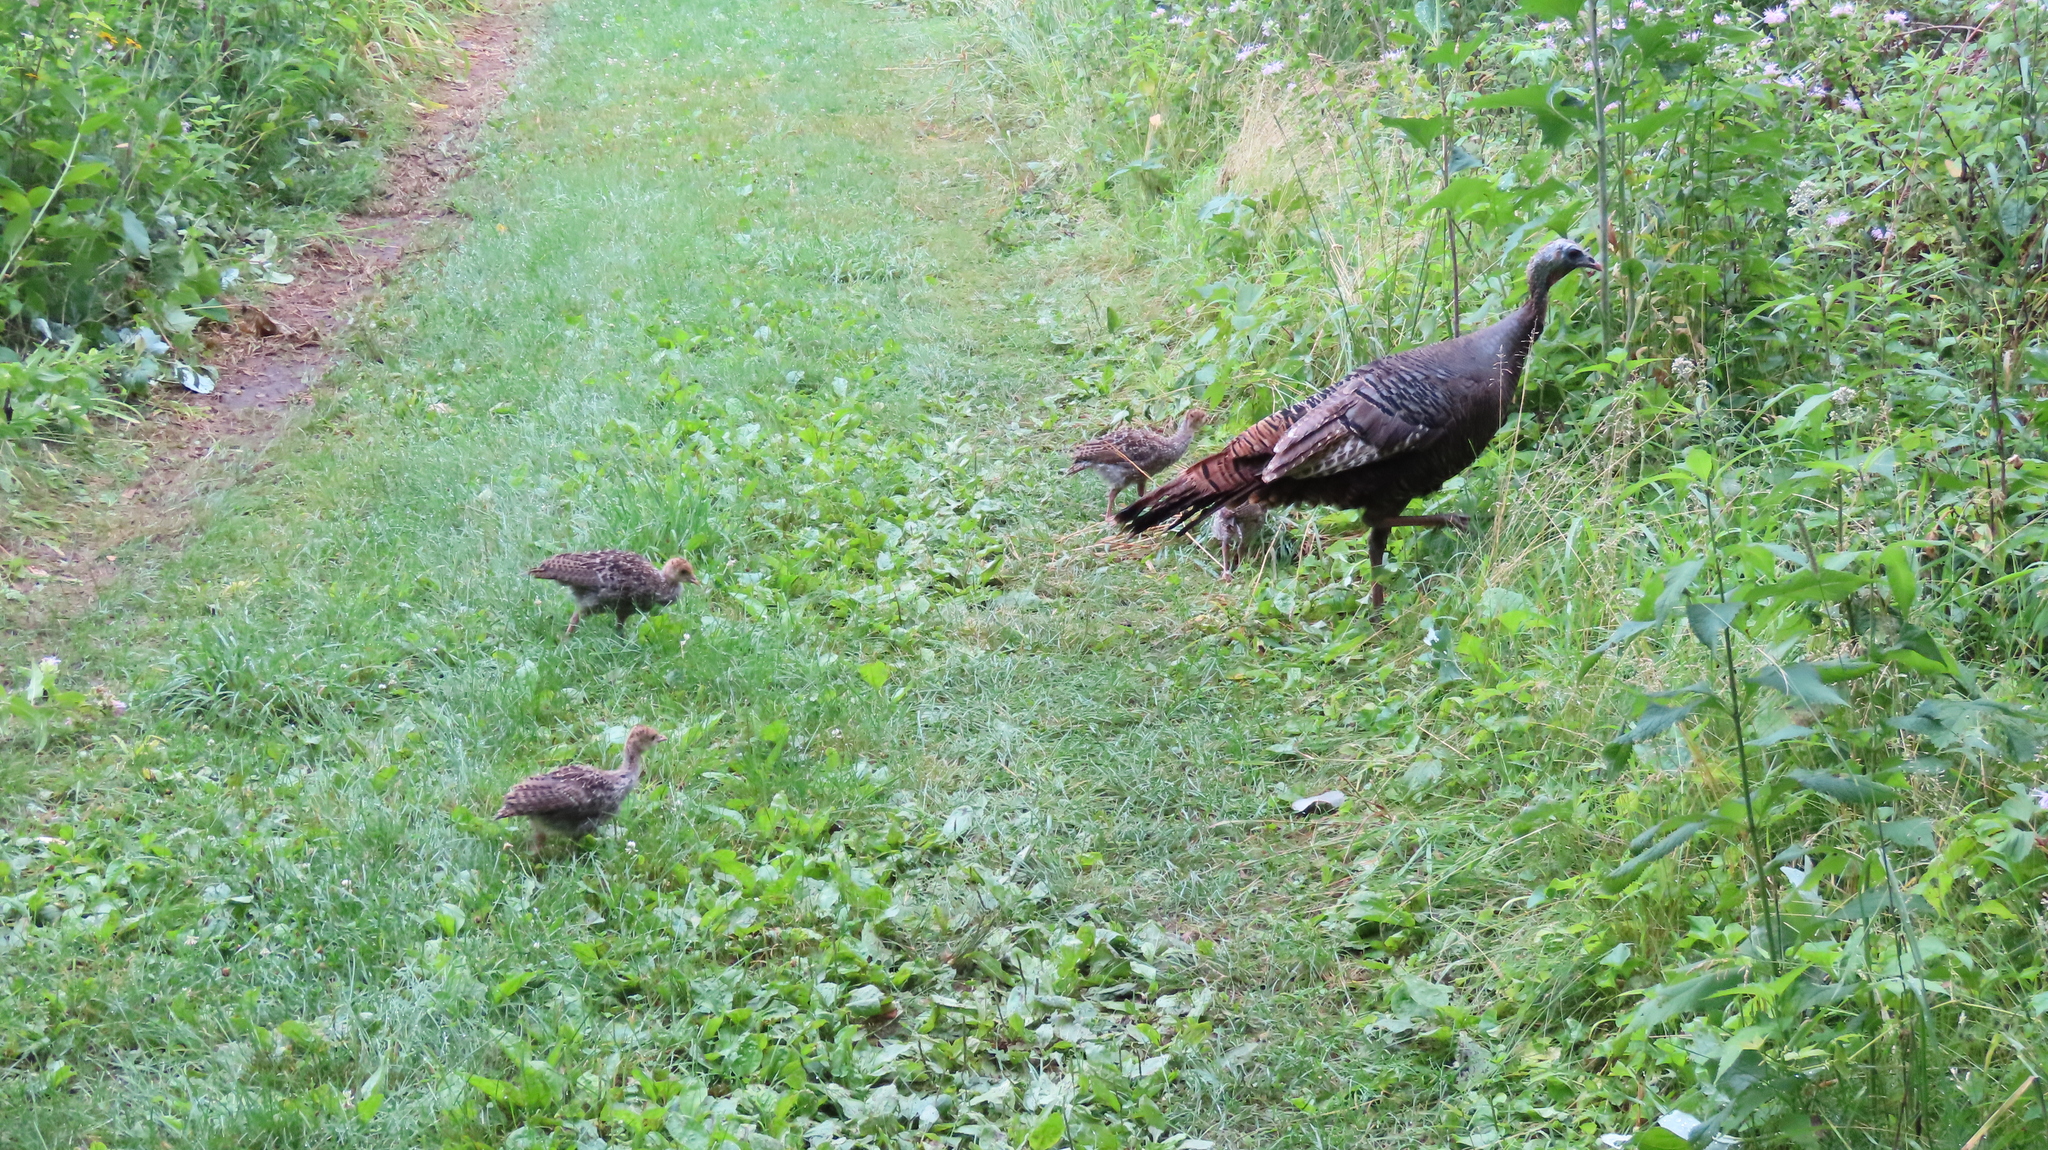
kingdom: Animalia
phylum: Chordata
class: Aves
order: Galliformes
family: Phasianidae
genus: Meleagris
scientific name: Meleagris gallopavo
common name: Wild turkey
